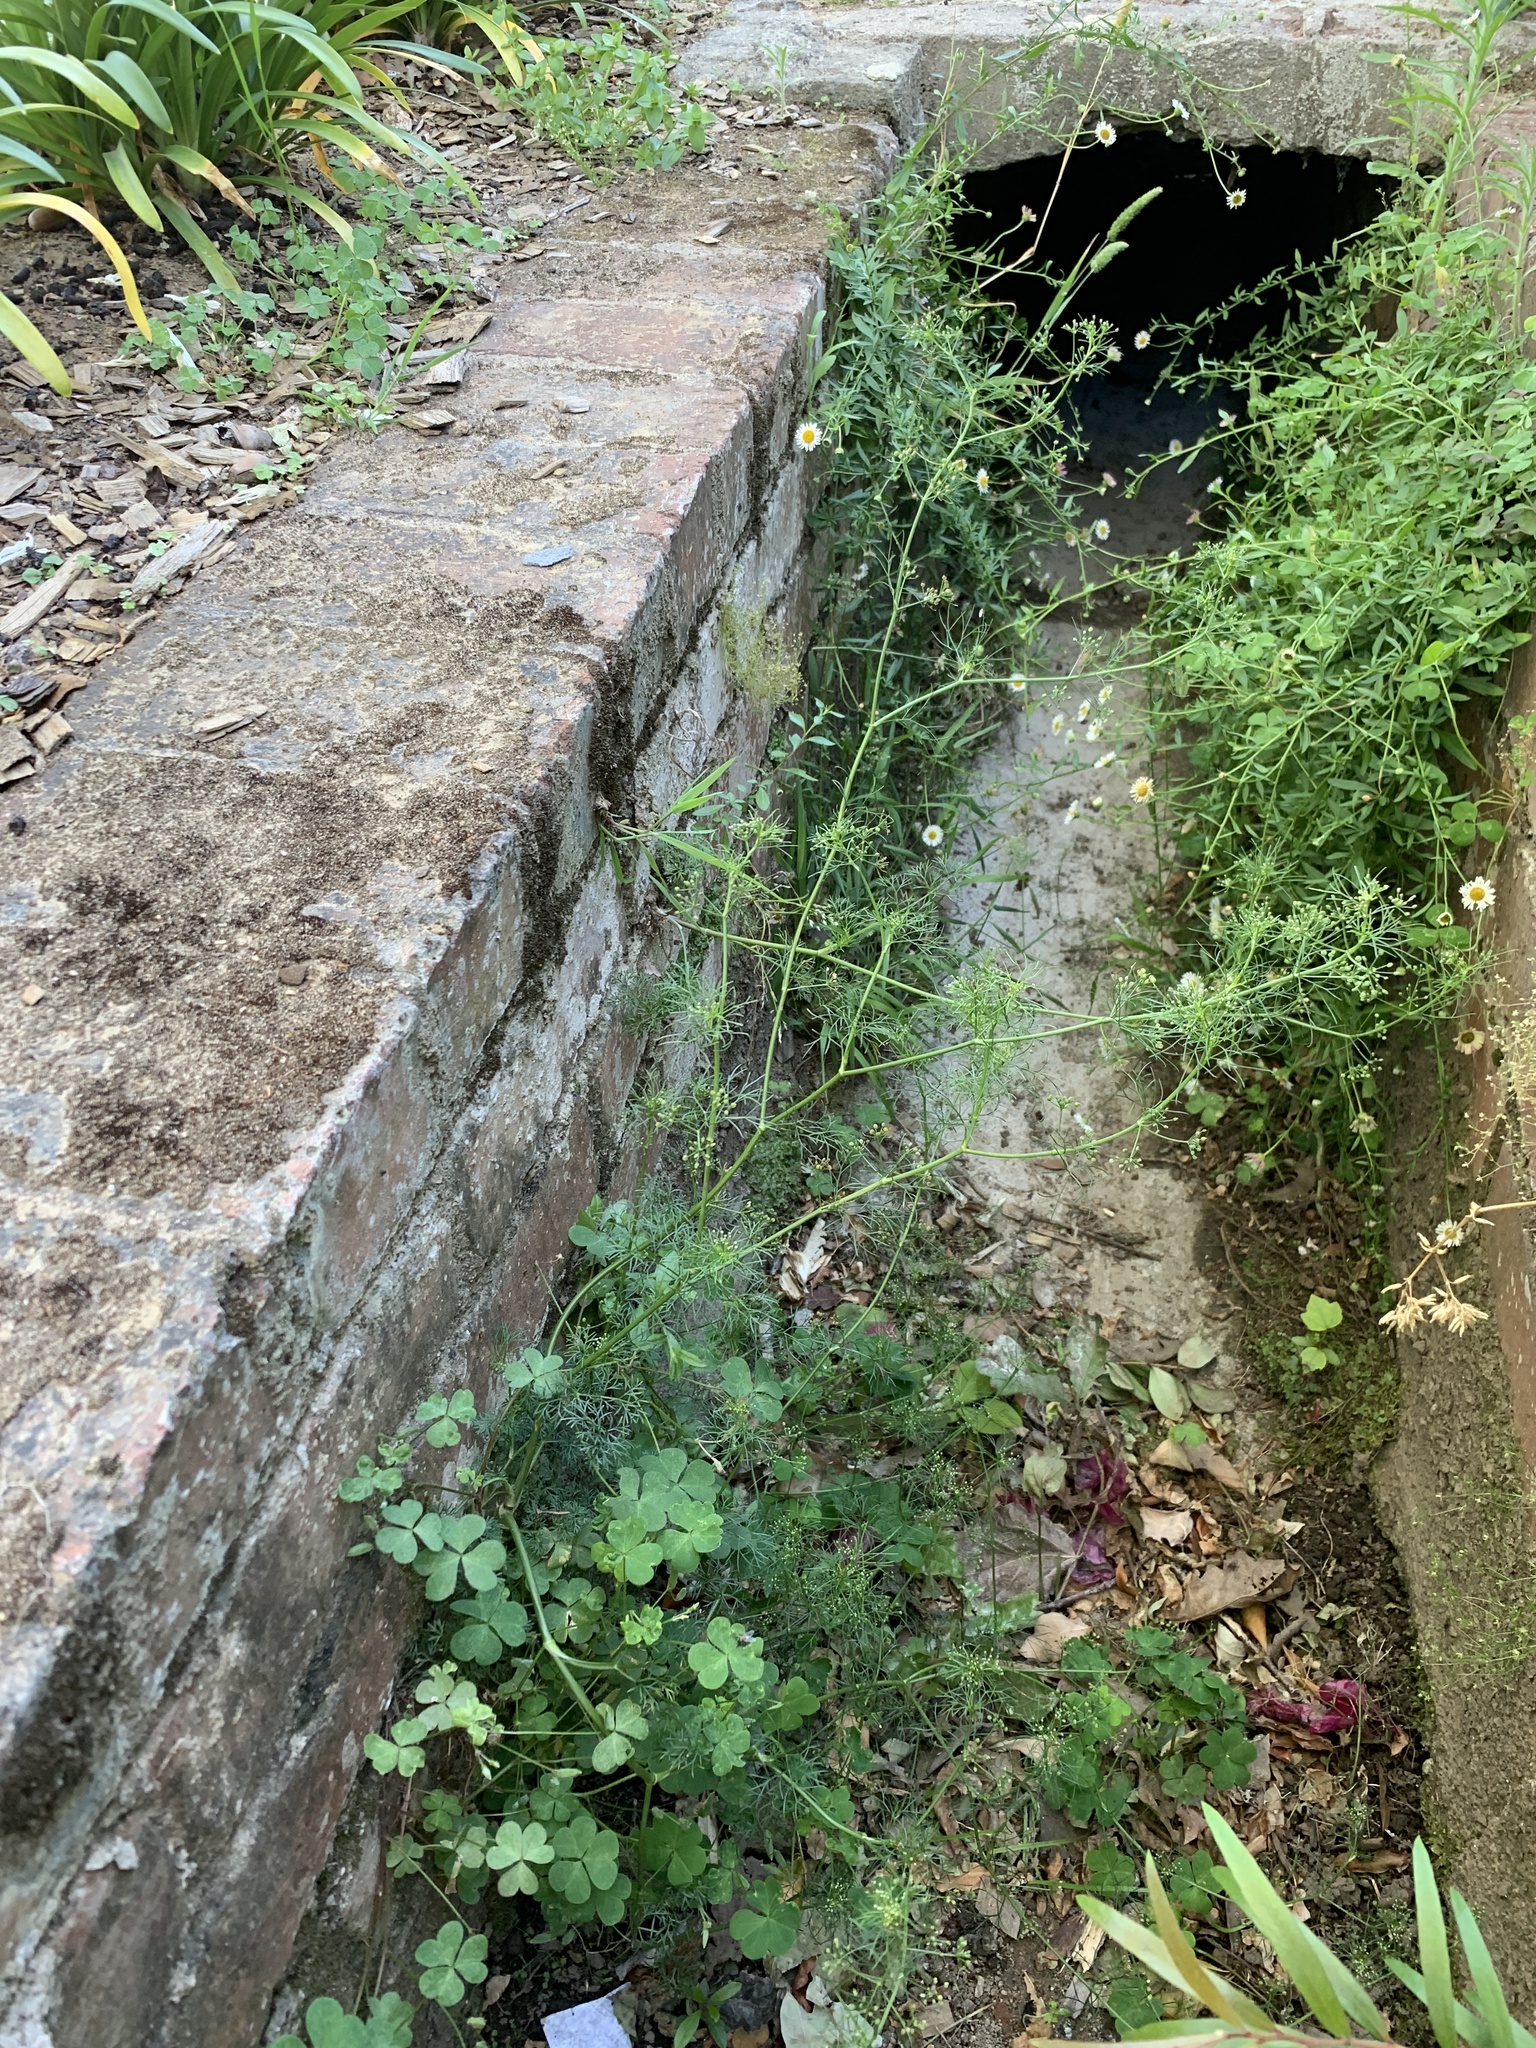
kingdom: Plantae
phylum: Tracheophyta
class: Magnoliopsida
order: Apiales
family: Apiaceae
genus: Cyclospermum
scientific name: Cyclospermum leptophyllum
